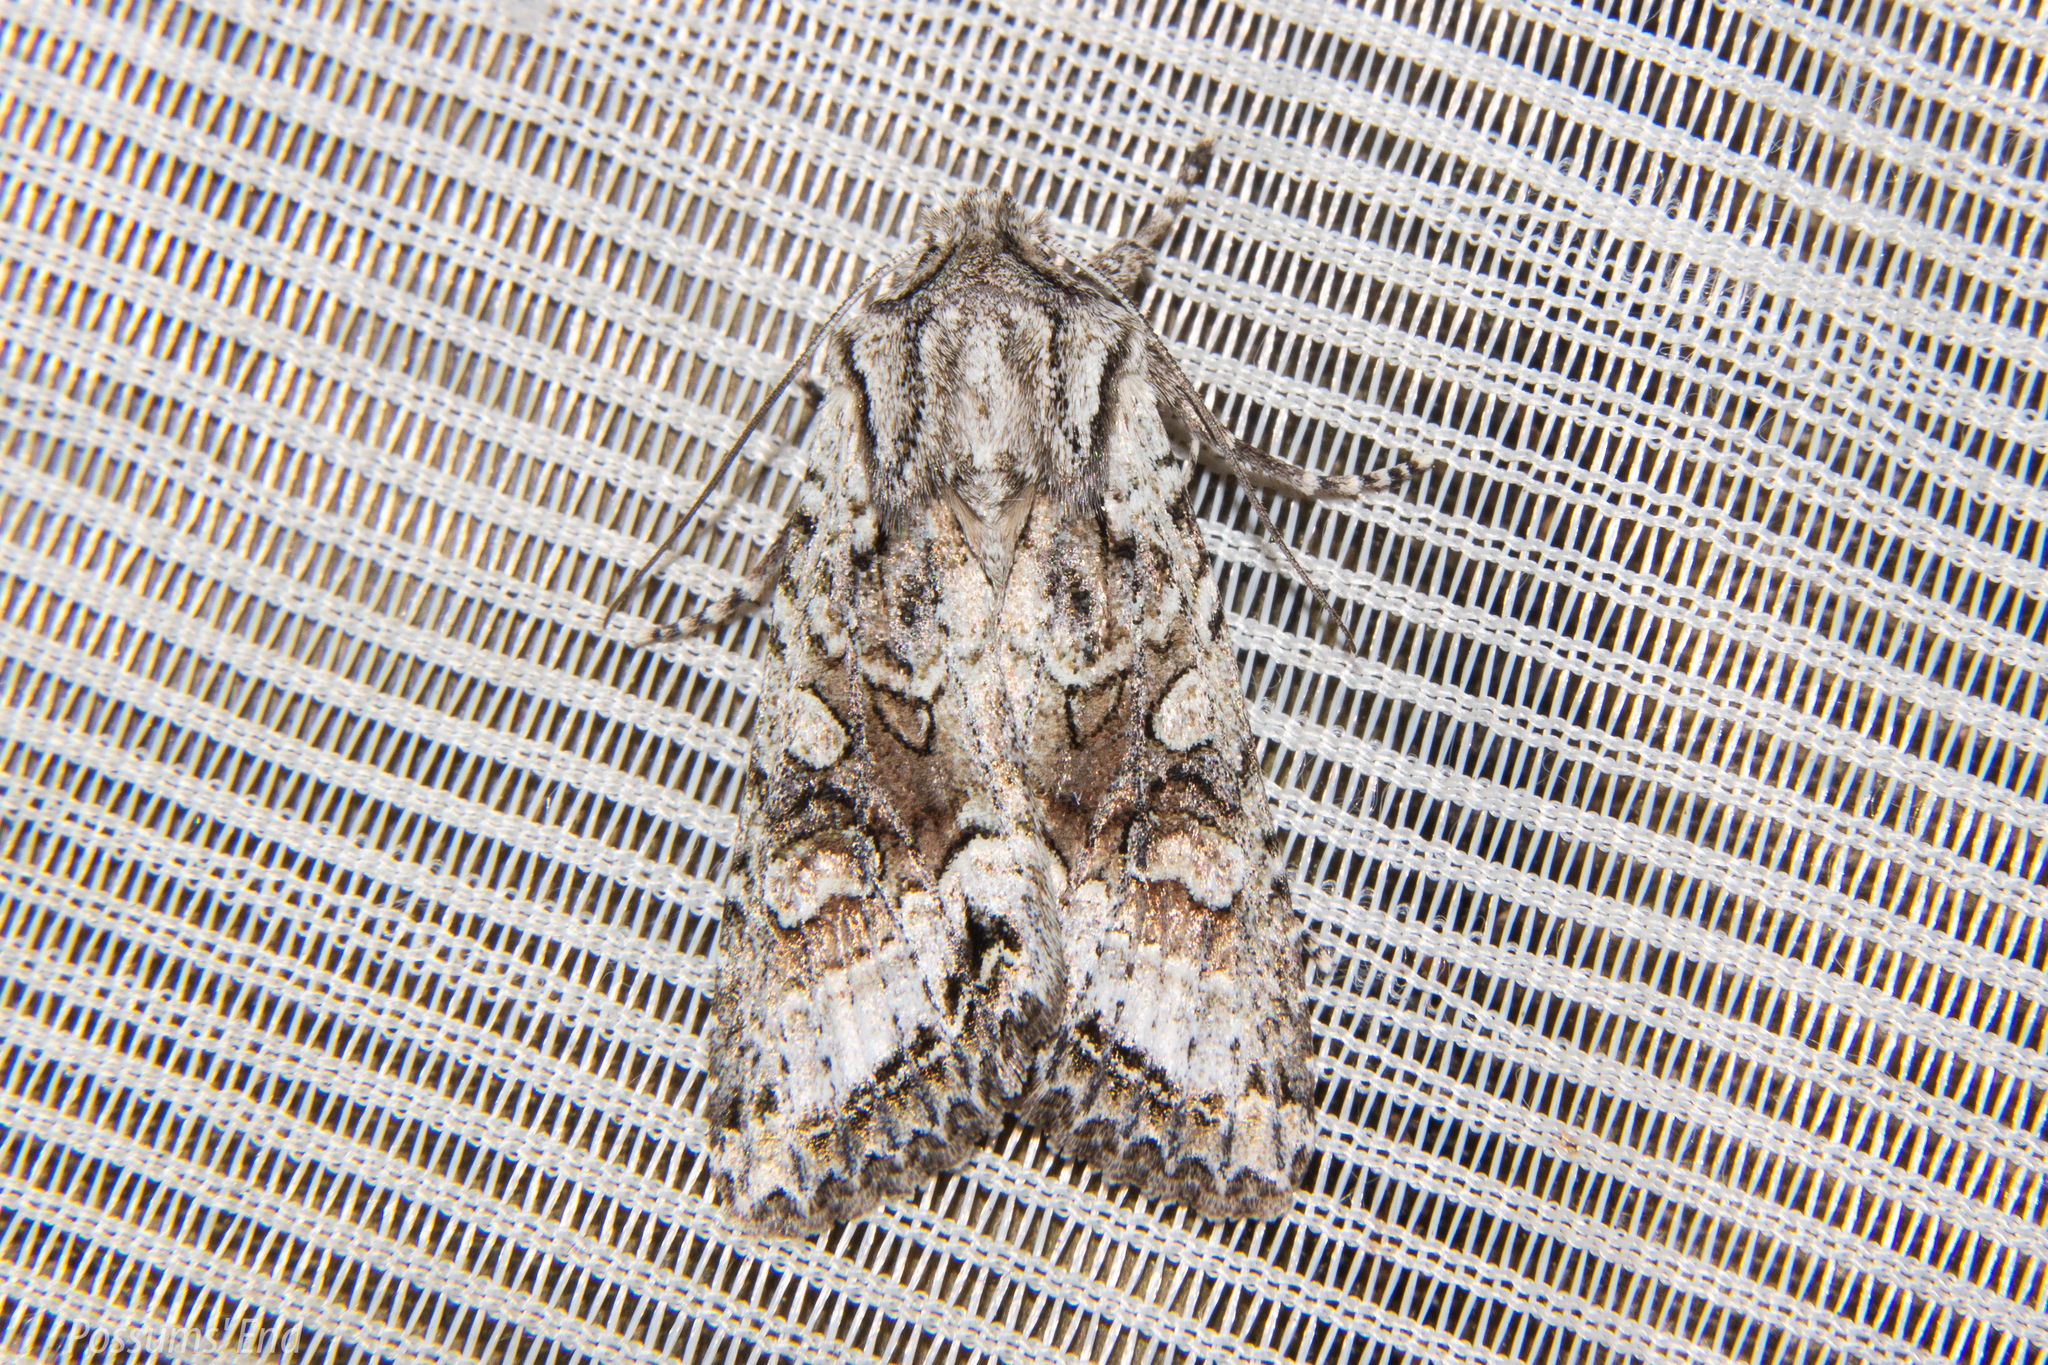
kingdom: Animalia
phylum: Arthropoda
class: Insecta
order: Lepidoptera
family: Noctuidae
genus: Ichneutica
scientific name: Ichneutica mutans
